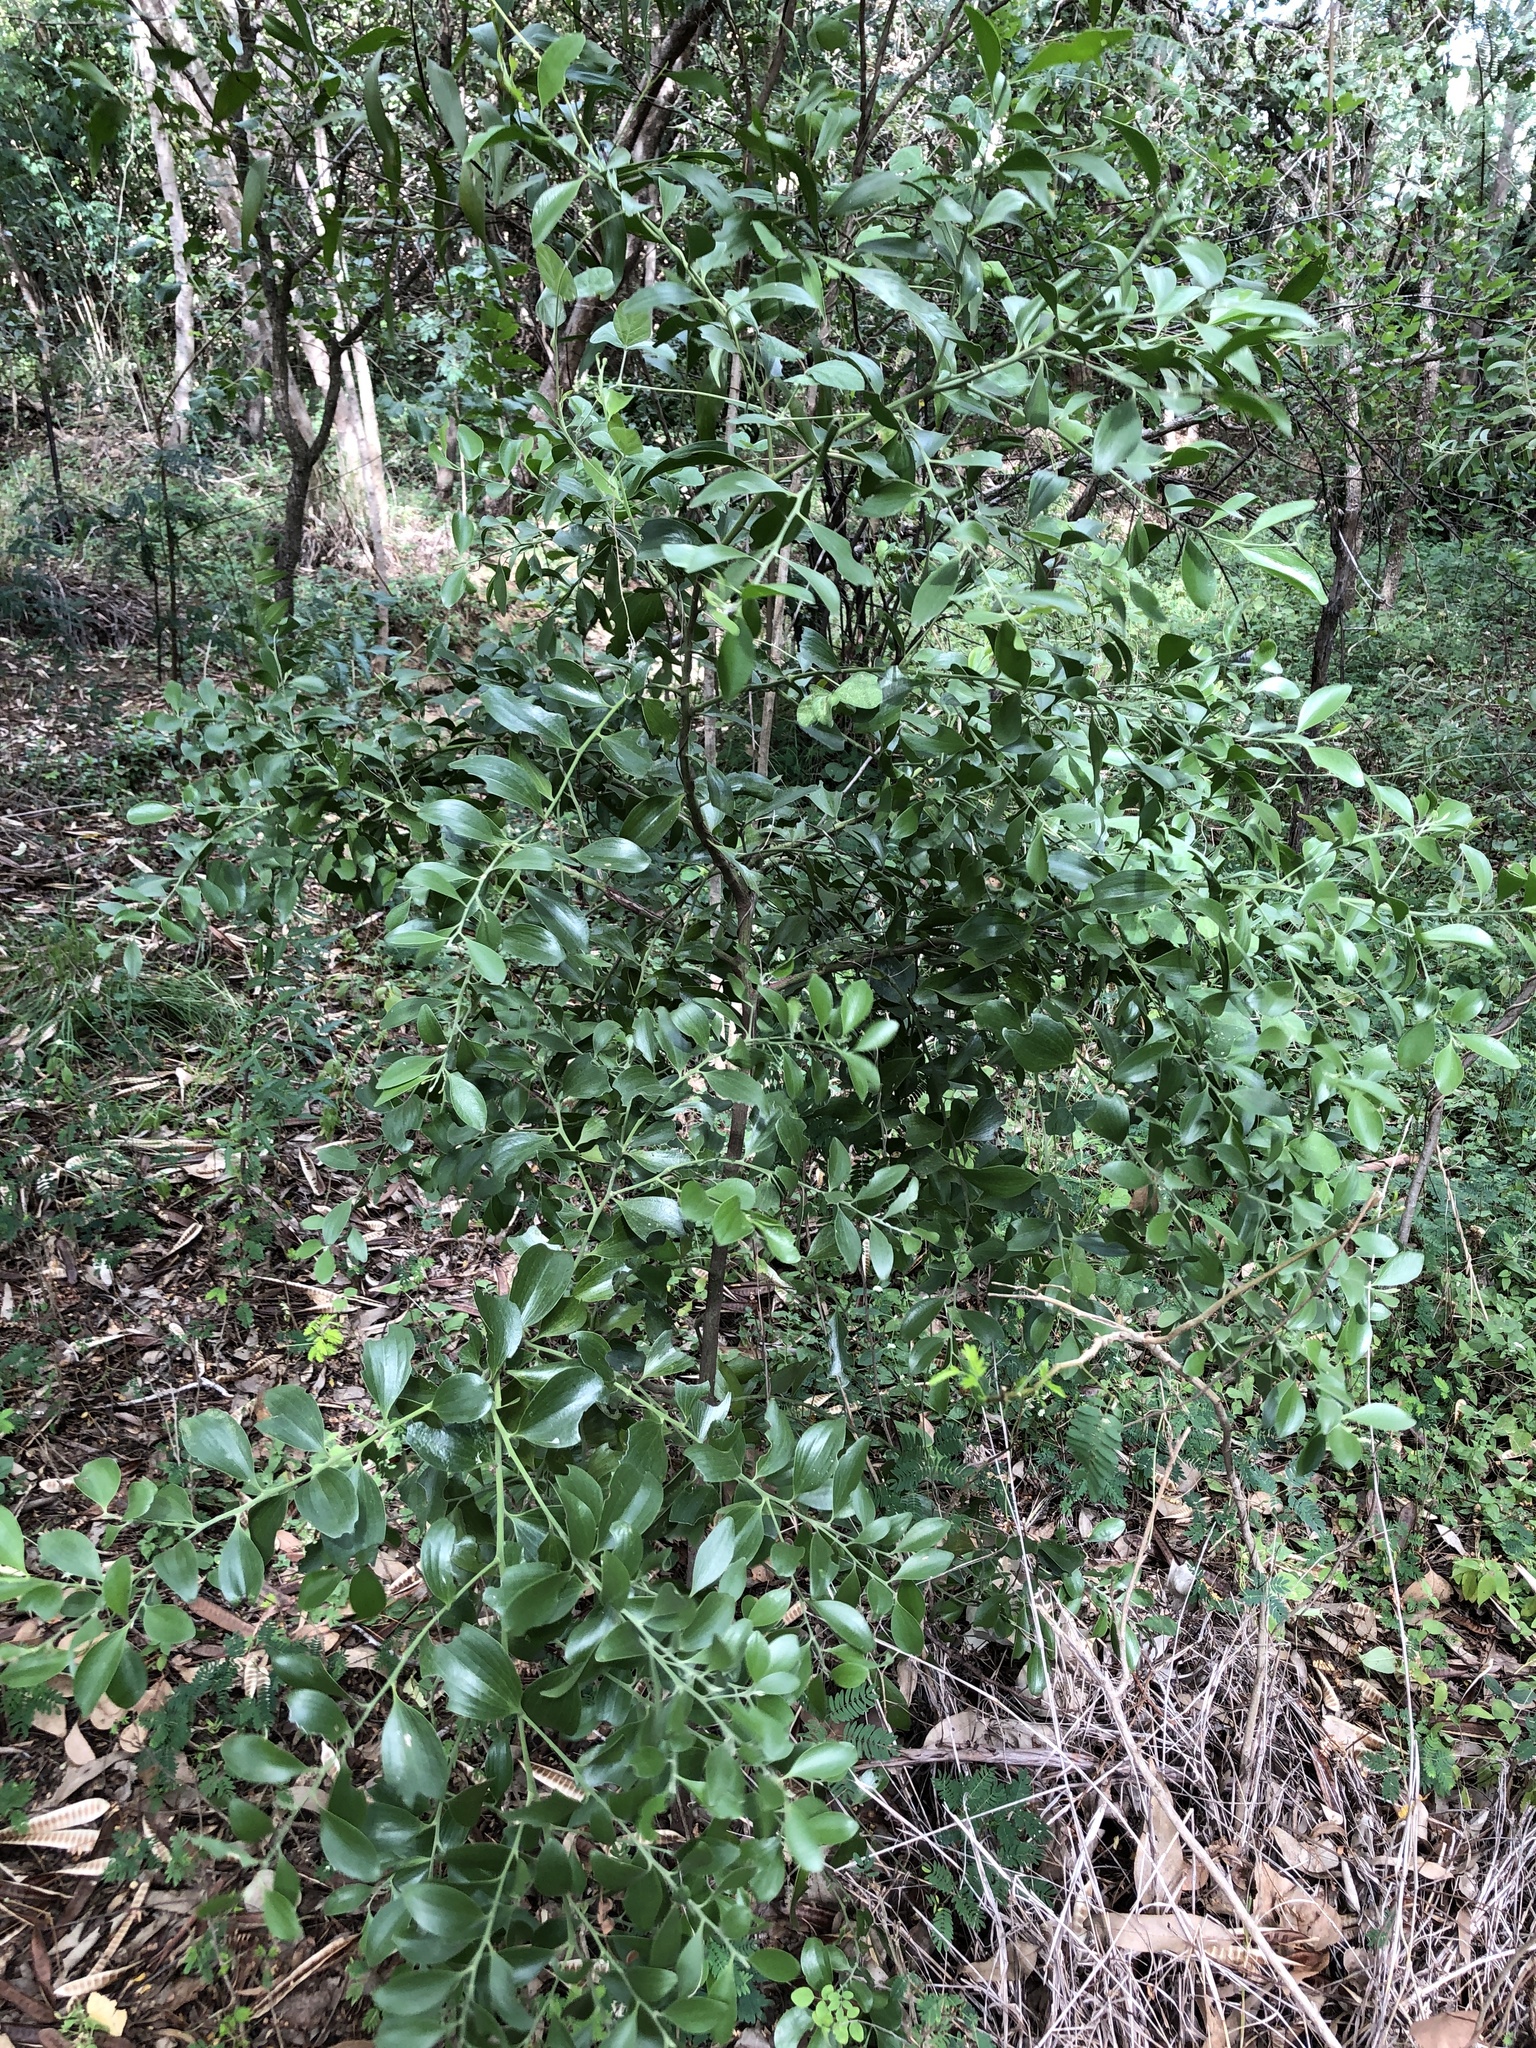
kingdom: Plantae
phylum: Tracheophyta
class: Magnoliopsida
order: Santalales
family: Santalaceae
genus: Exocarpos
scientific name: Exocarpos latifolius
